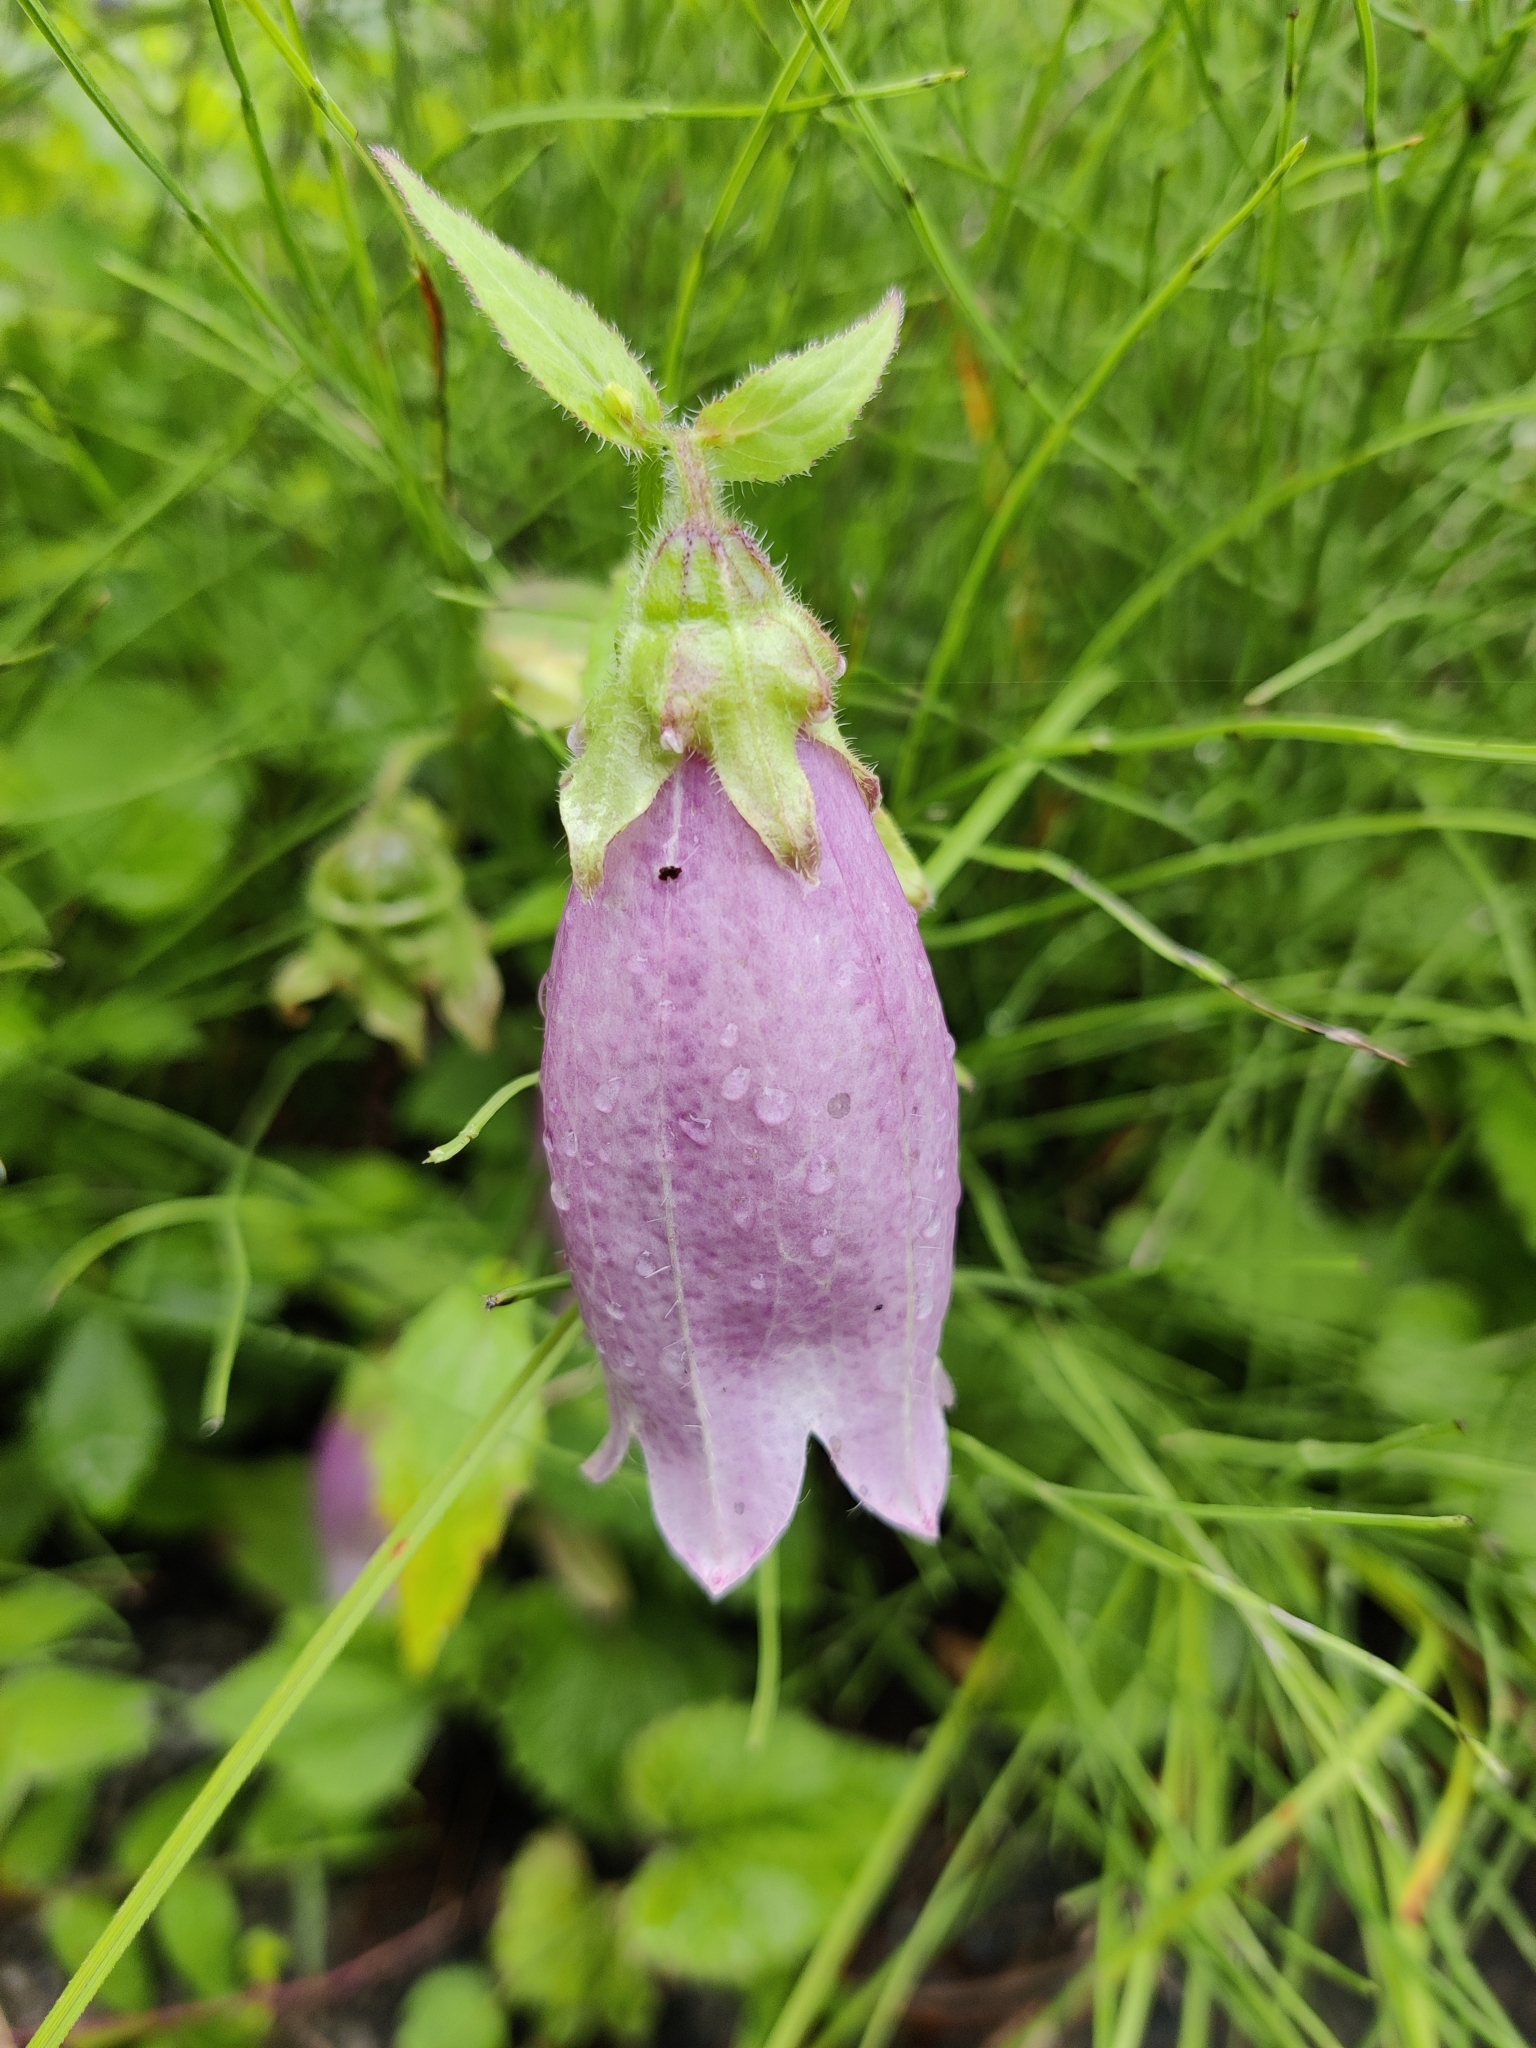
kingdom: Plantae
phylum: Tracheophyta
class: Magnoliopsida
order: Asterales
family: Campanulaceae
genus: Campanula
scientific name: Campanula punctata
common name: Spotted bellflower
